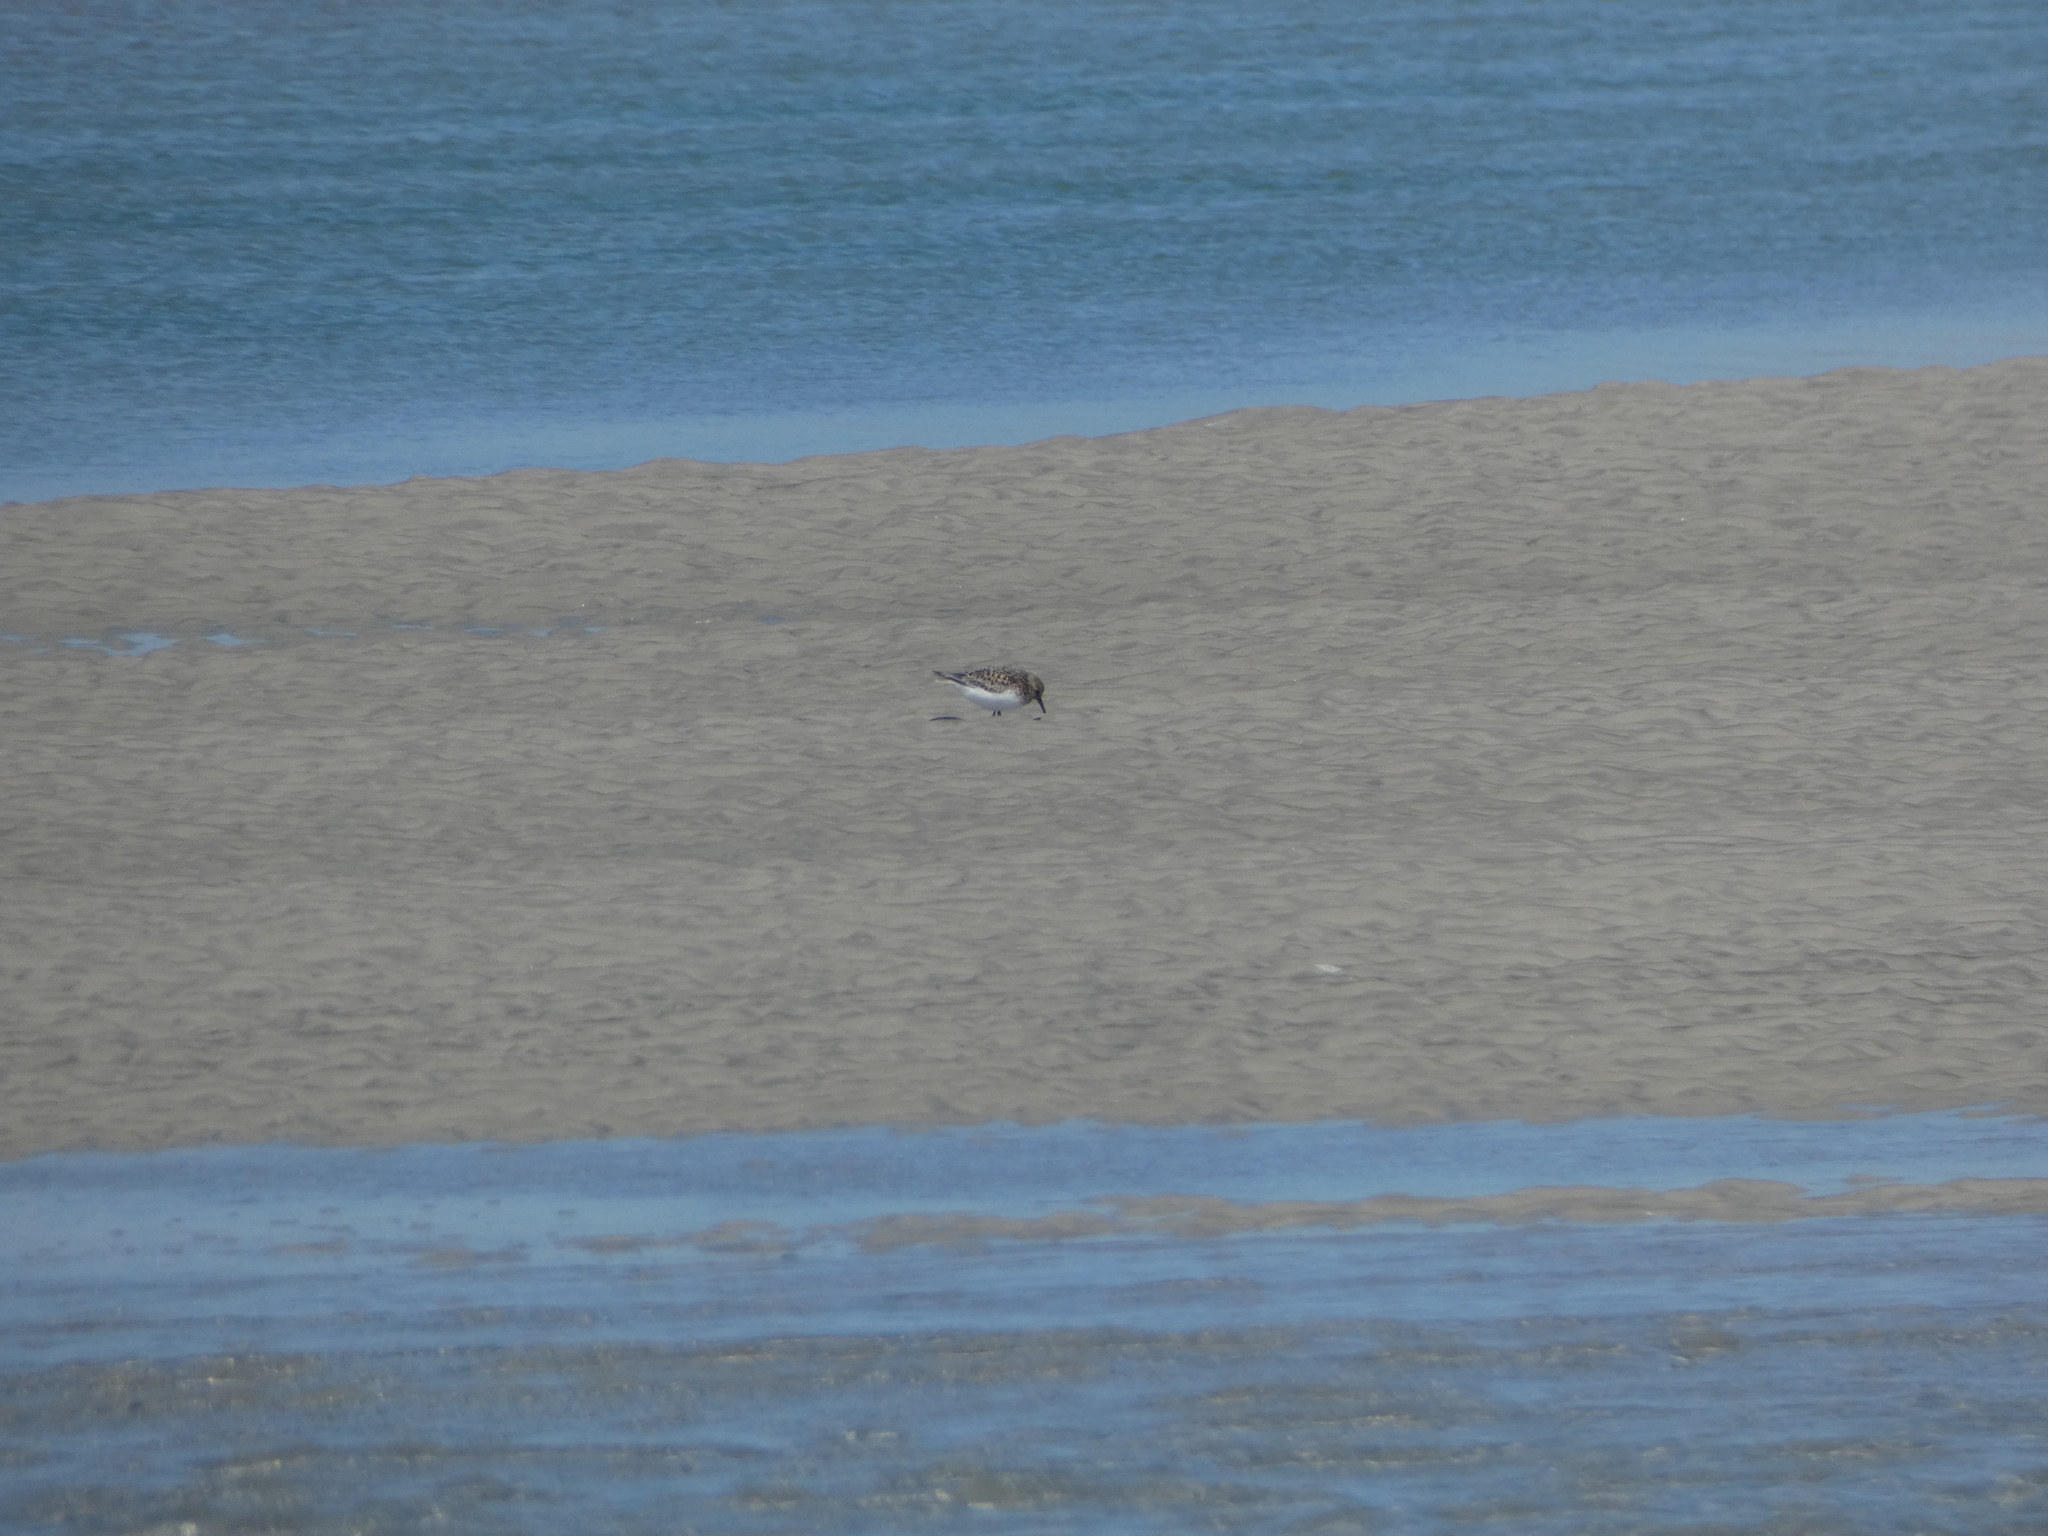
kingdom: Animalia
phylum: Chordata
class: Aves
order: Charadriiformes
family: Scolopacidae
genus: Calidris
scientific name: Calidris alba
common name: Sanderling
